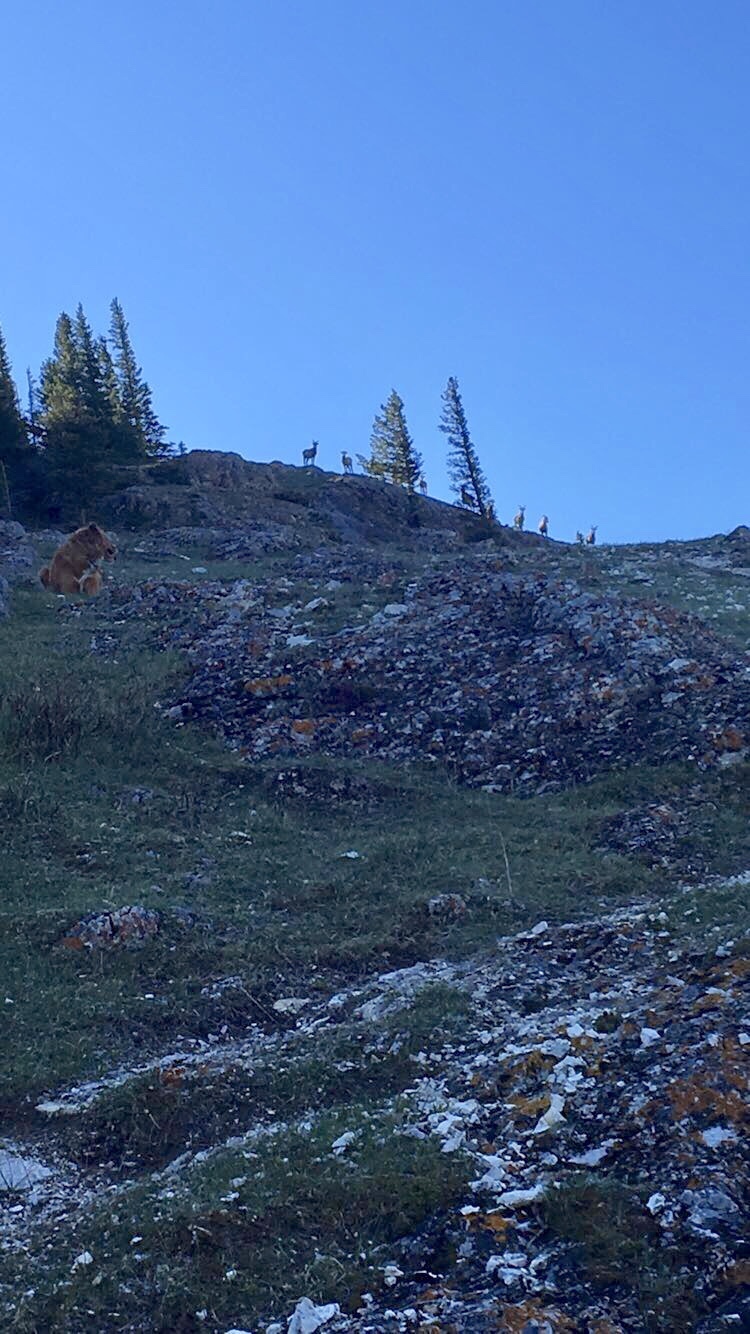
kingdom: Animalia
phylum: Chordata
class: Mammalia
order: Artiodactyla
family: Bovidae
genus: Ovis
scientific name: Ovis canadensis
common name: Bighorn sheep
